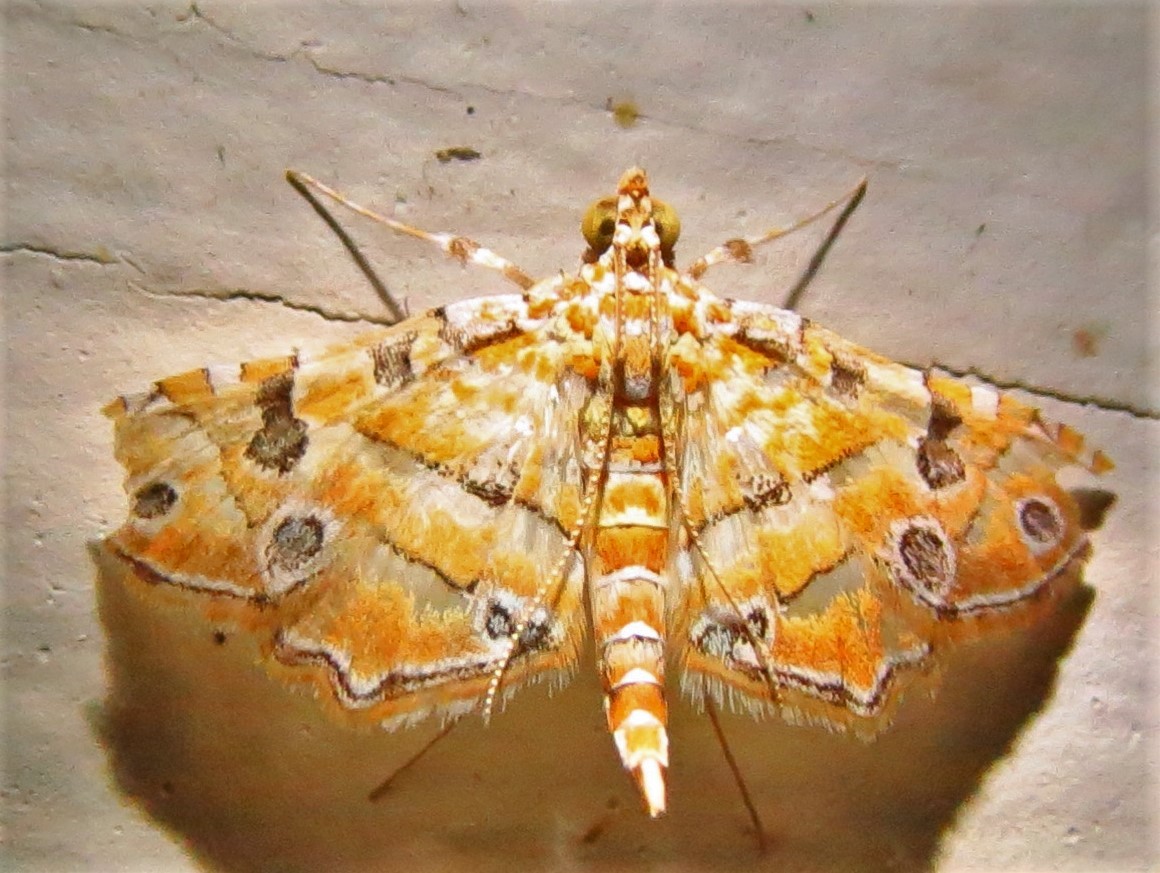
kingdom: Animalia
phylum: Arthropoda
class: Insecta
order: Lepidoptera
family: Crambidae
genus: Ommatospila
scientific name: Ommatospila narcaeusalis
